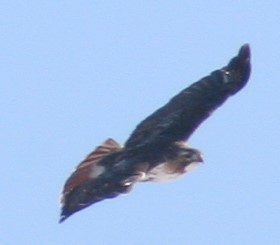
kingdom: Animalia
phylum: Chordata
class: Aves
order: Accipitriformes
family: Accipitridae
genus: Buteo
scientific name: Buteo jamaicensis
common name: Red-tailed hawk
